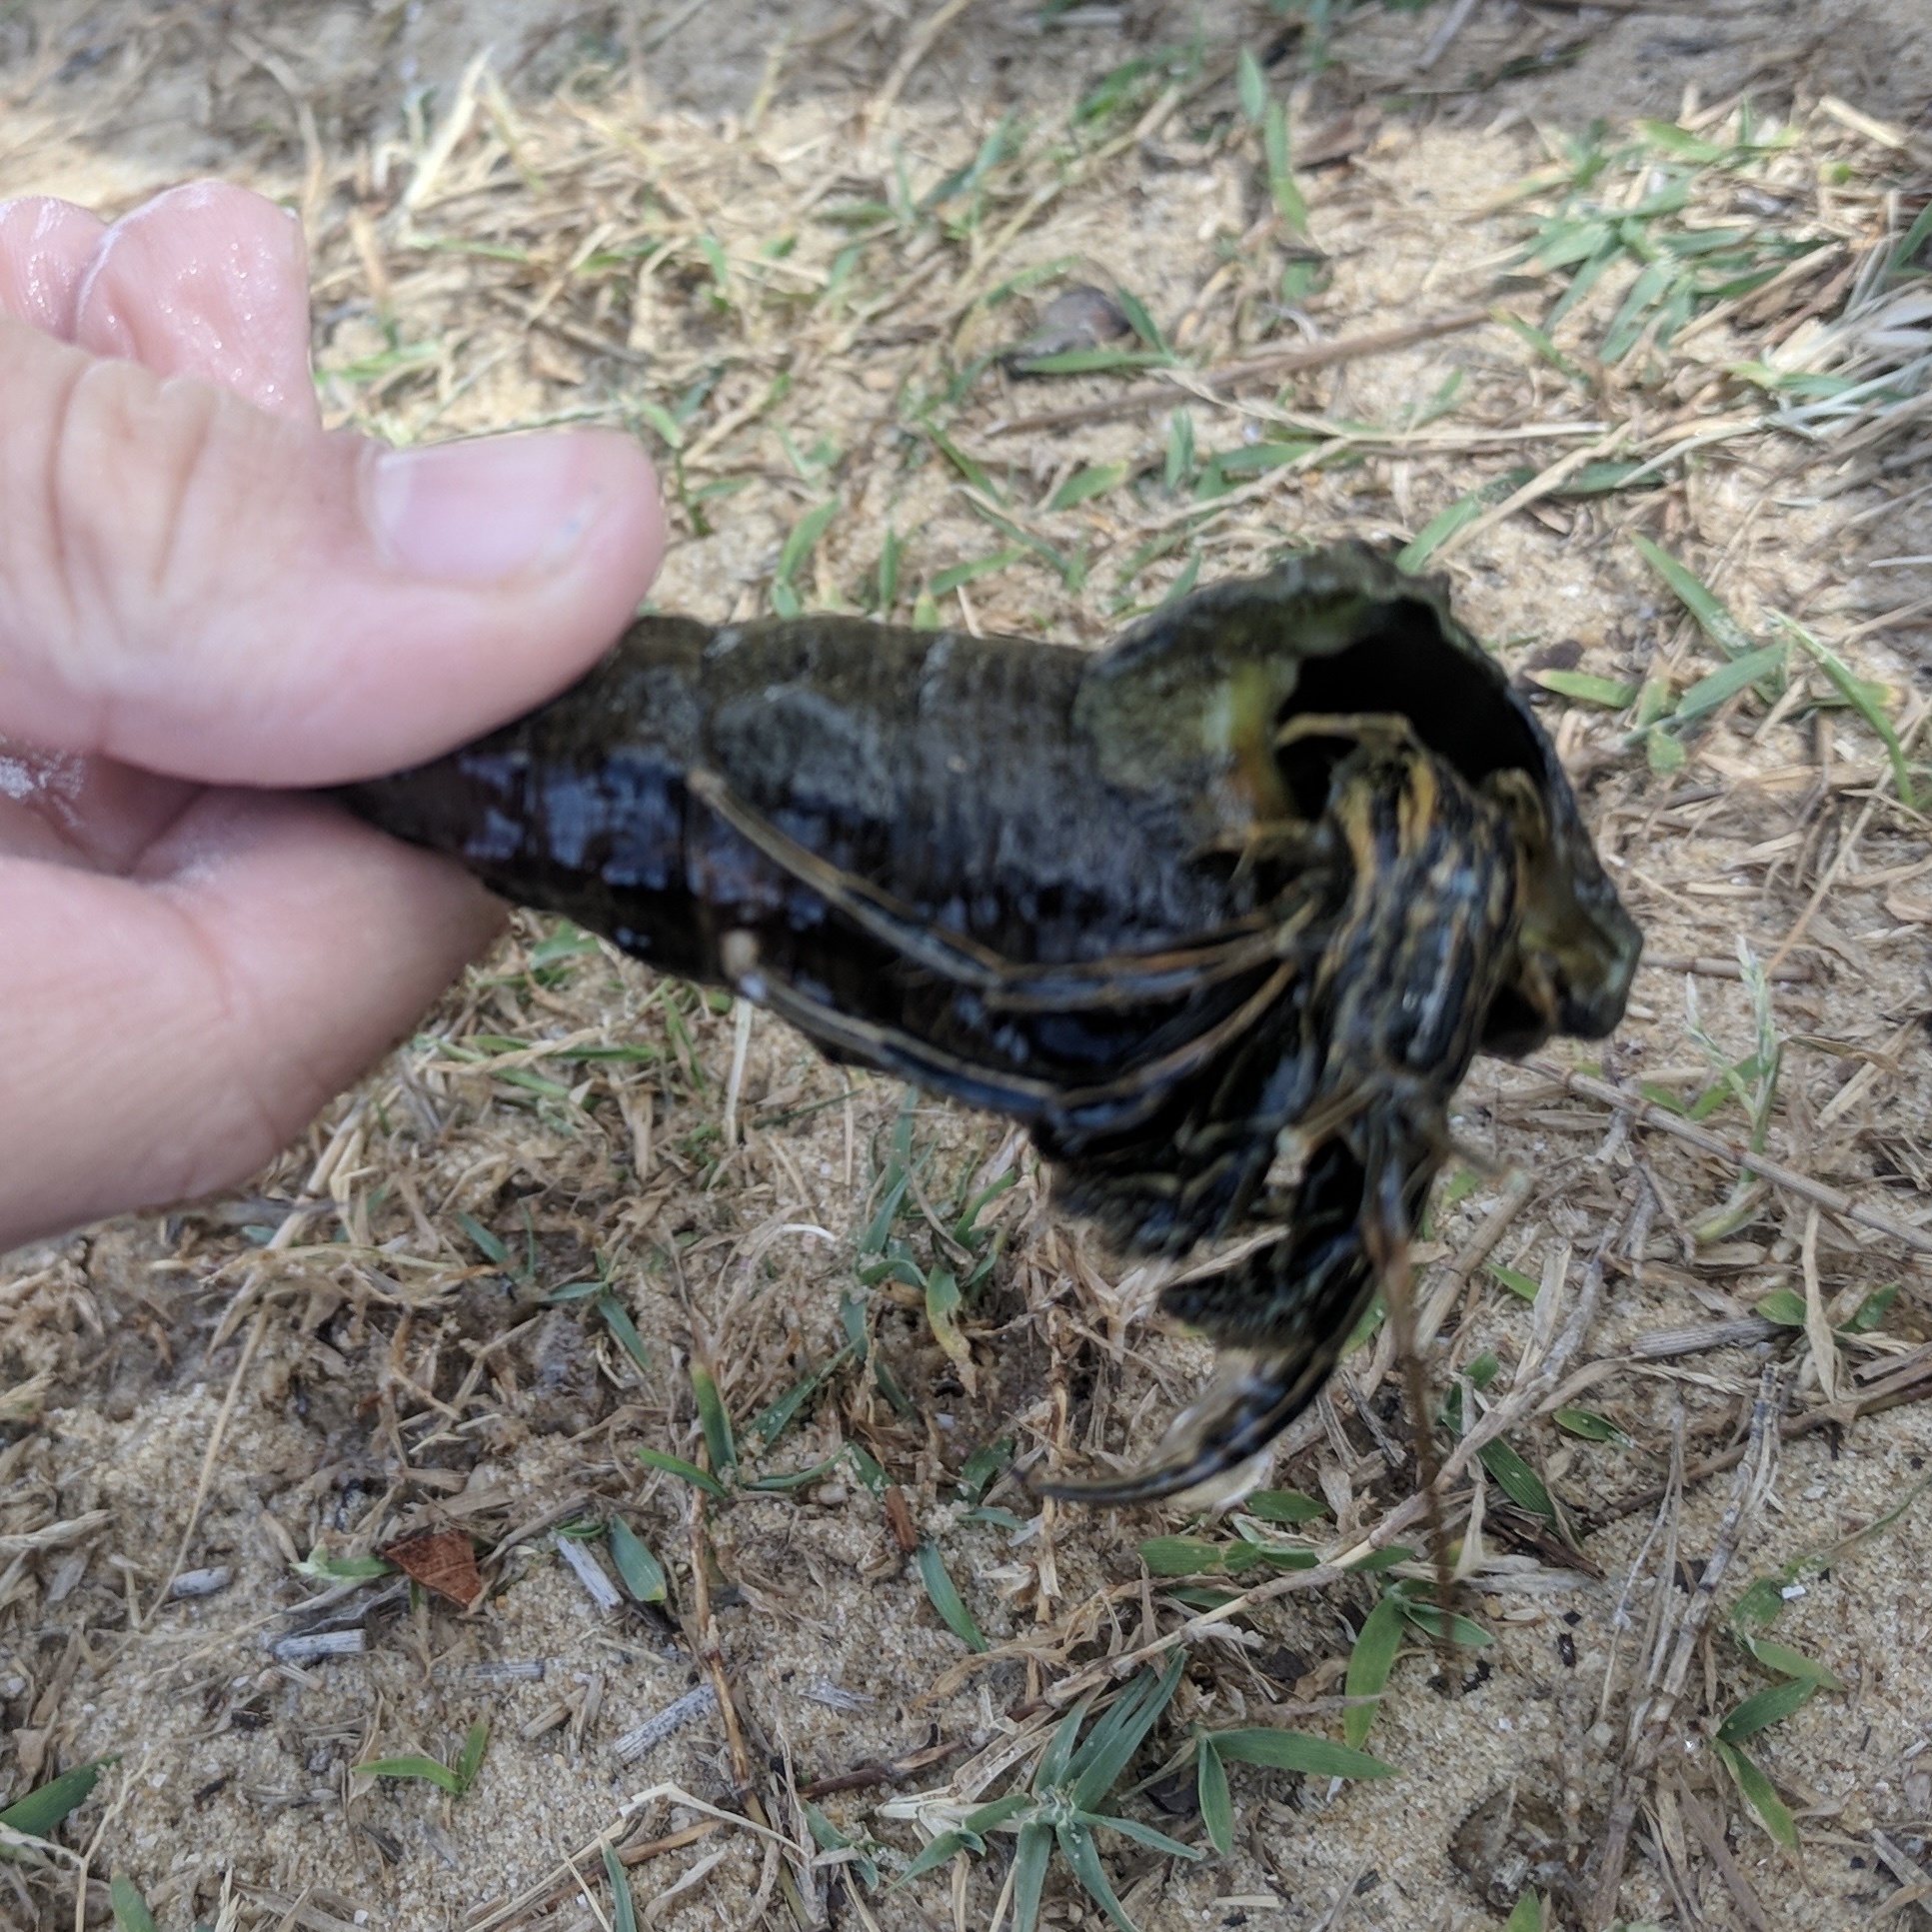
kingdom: Animalia
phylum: Arthropoda
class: Malacostraca
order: Decapoda
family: Diogenidae
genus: Clibanarius
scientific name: Clibanarius taeniatus
